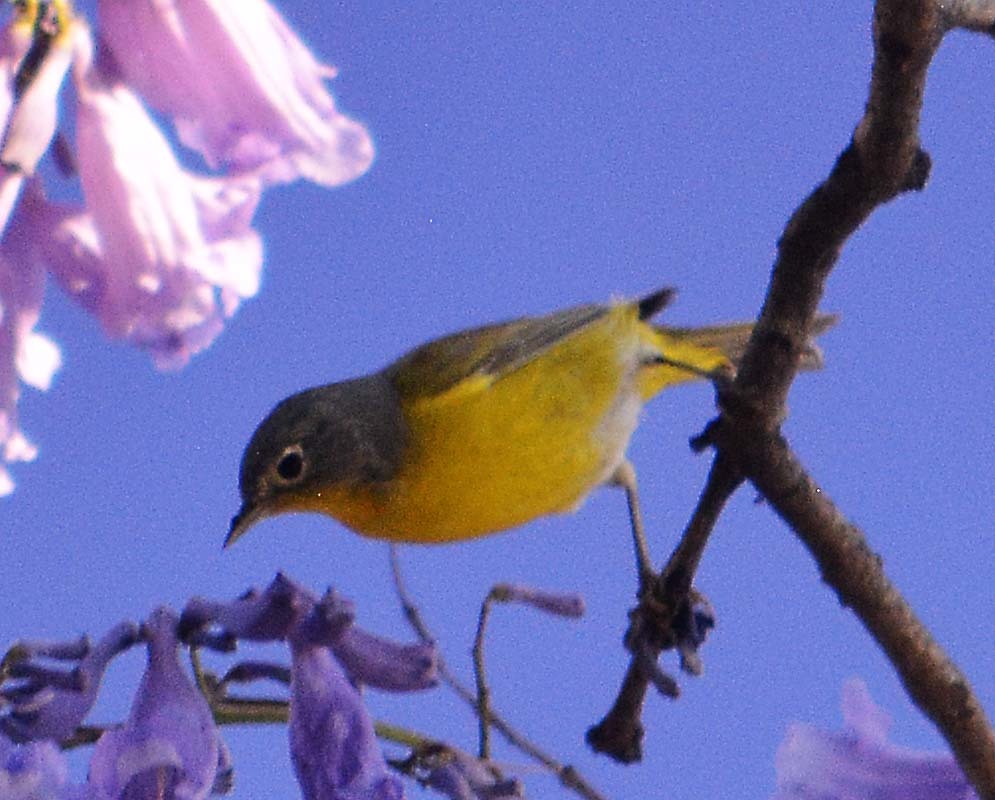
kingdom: Animalia
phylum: Chordata
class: Aves
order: Passeriformes
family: Parulidae
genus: Leiothlypis
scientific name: Leiothlypis ruficapilla
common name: Nashville warbler
